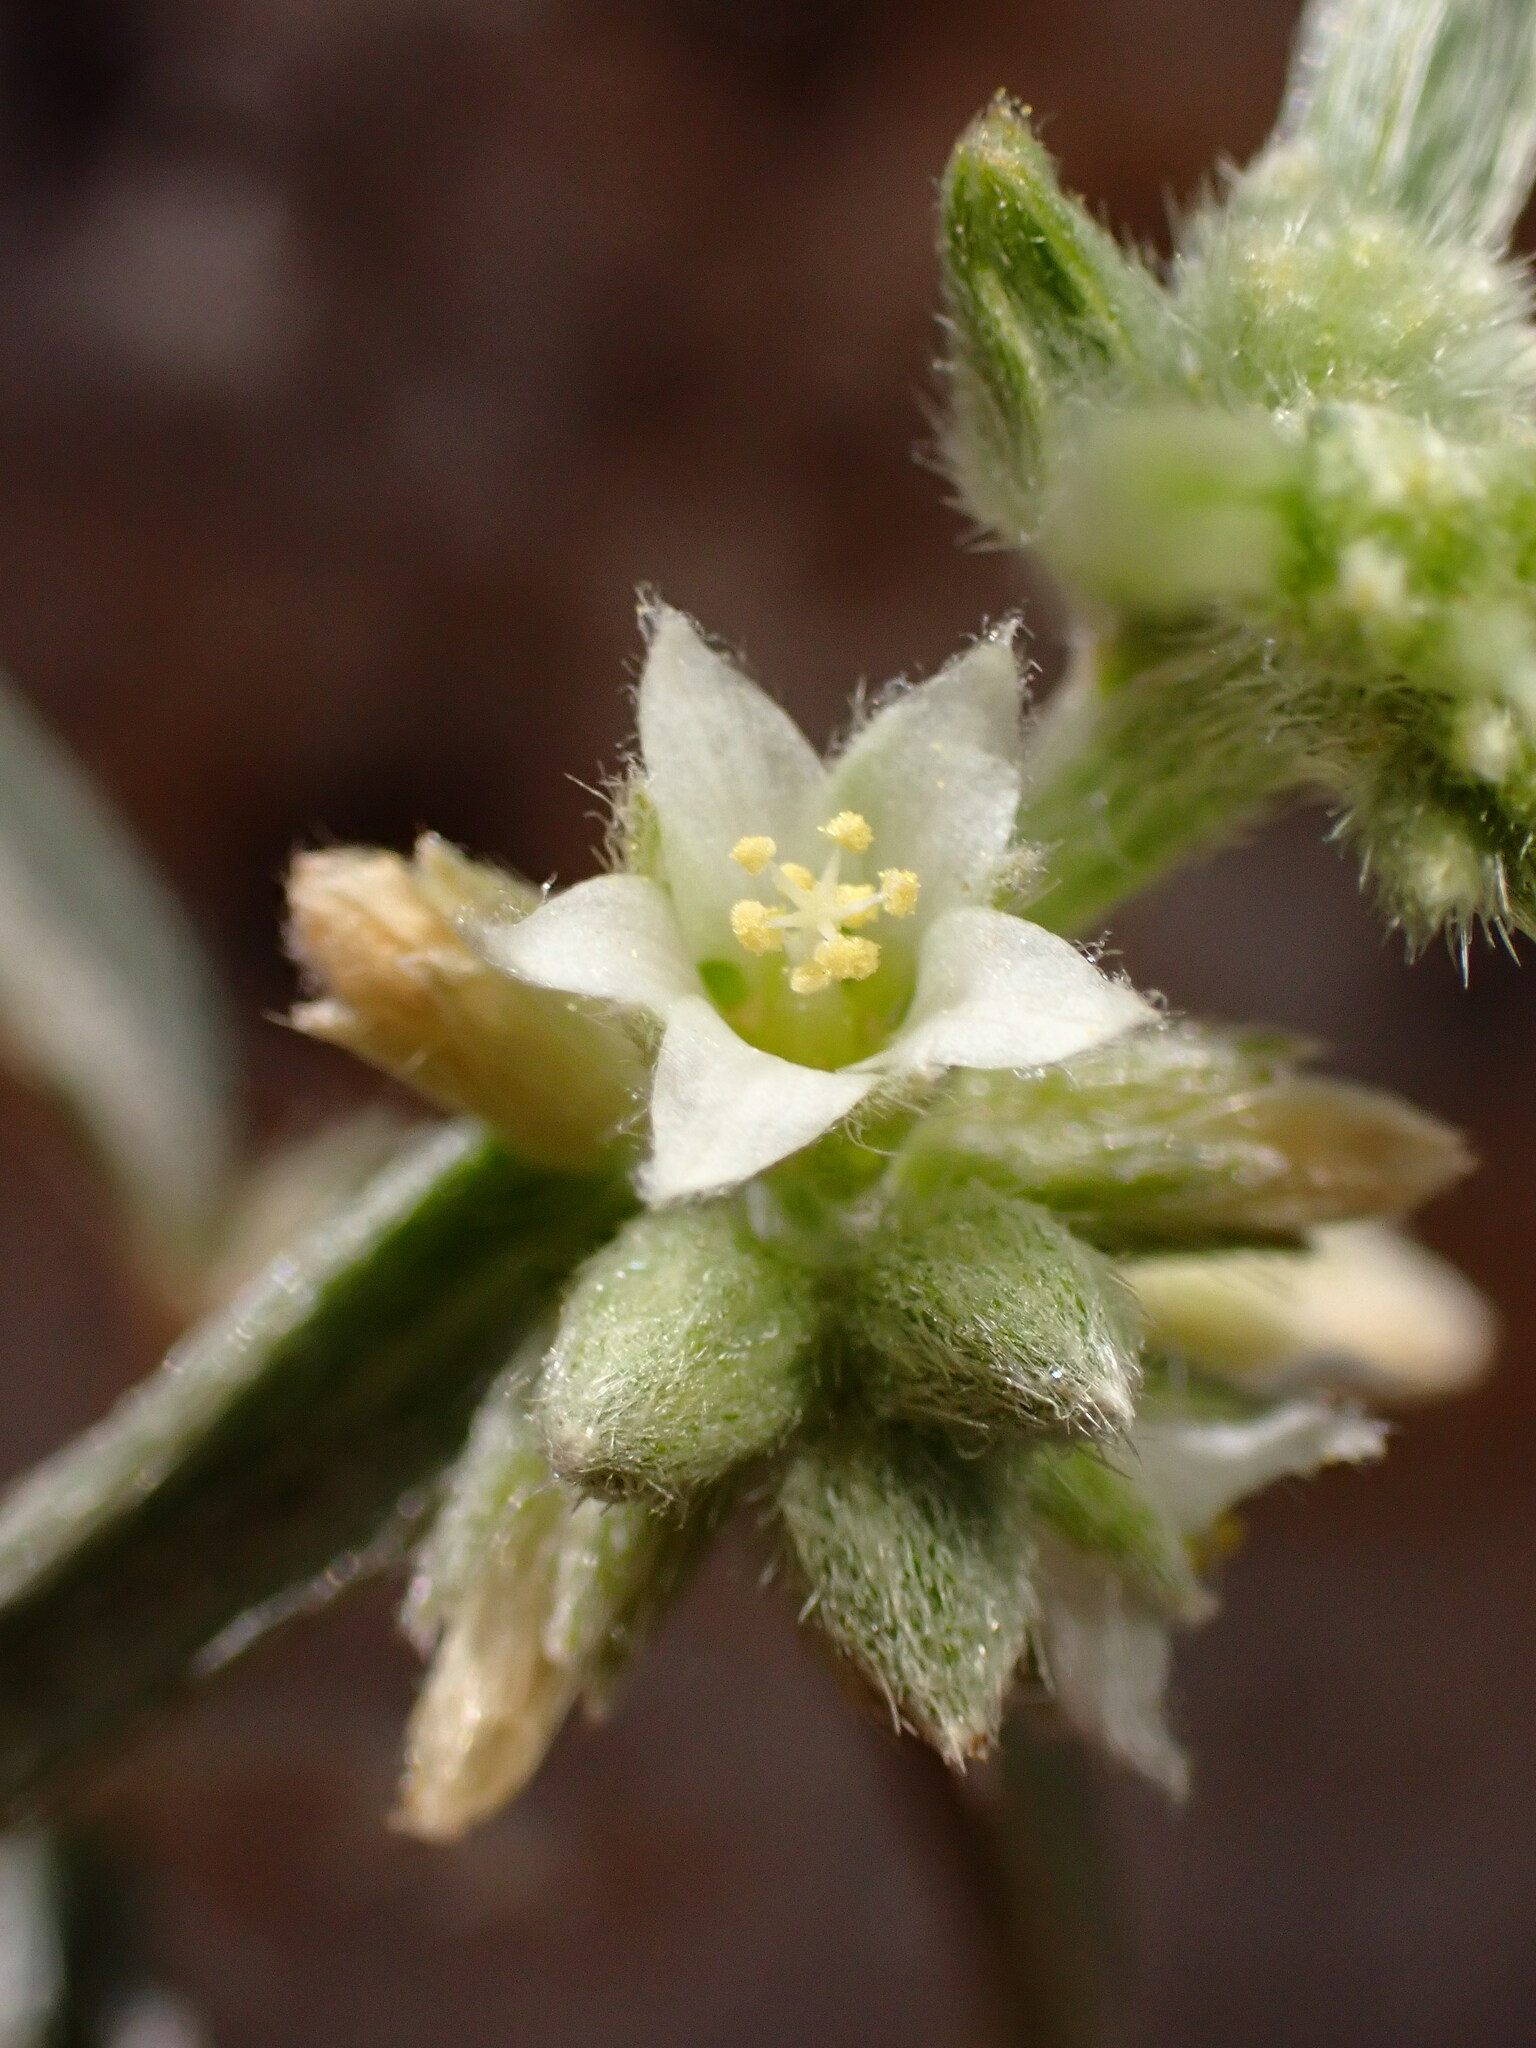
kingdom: Plantae
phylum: Tracheophyta
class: Magnoliopsida
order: Malpighiales
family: Euphorbiaceae
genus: Ditaxis
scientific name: Ditaxis lanceolata
